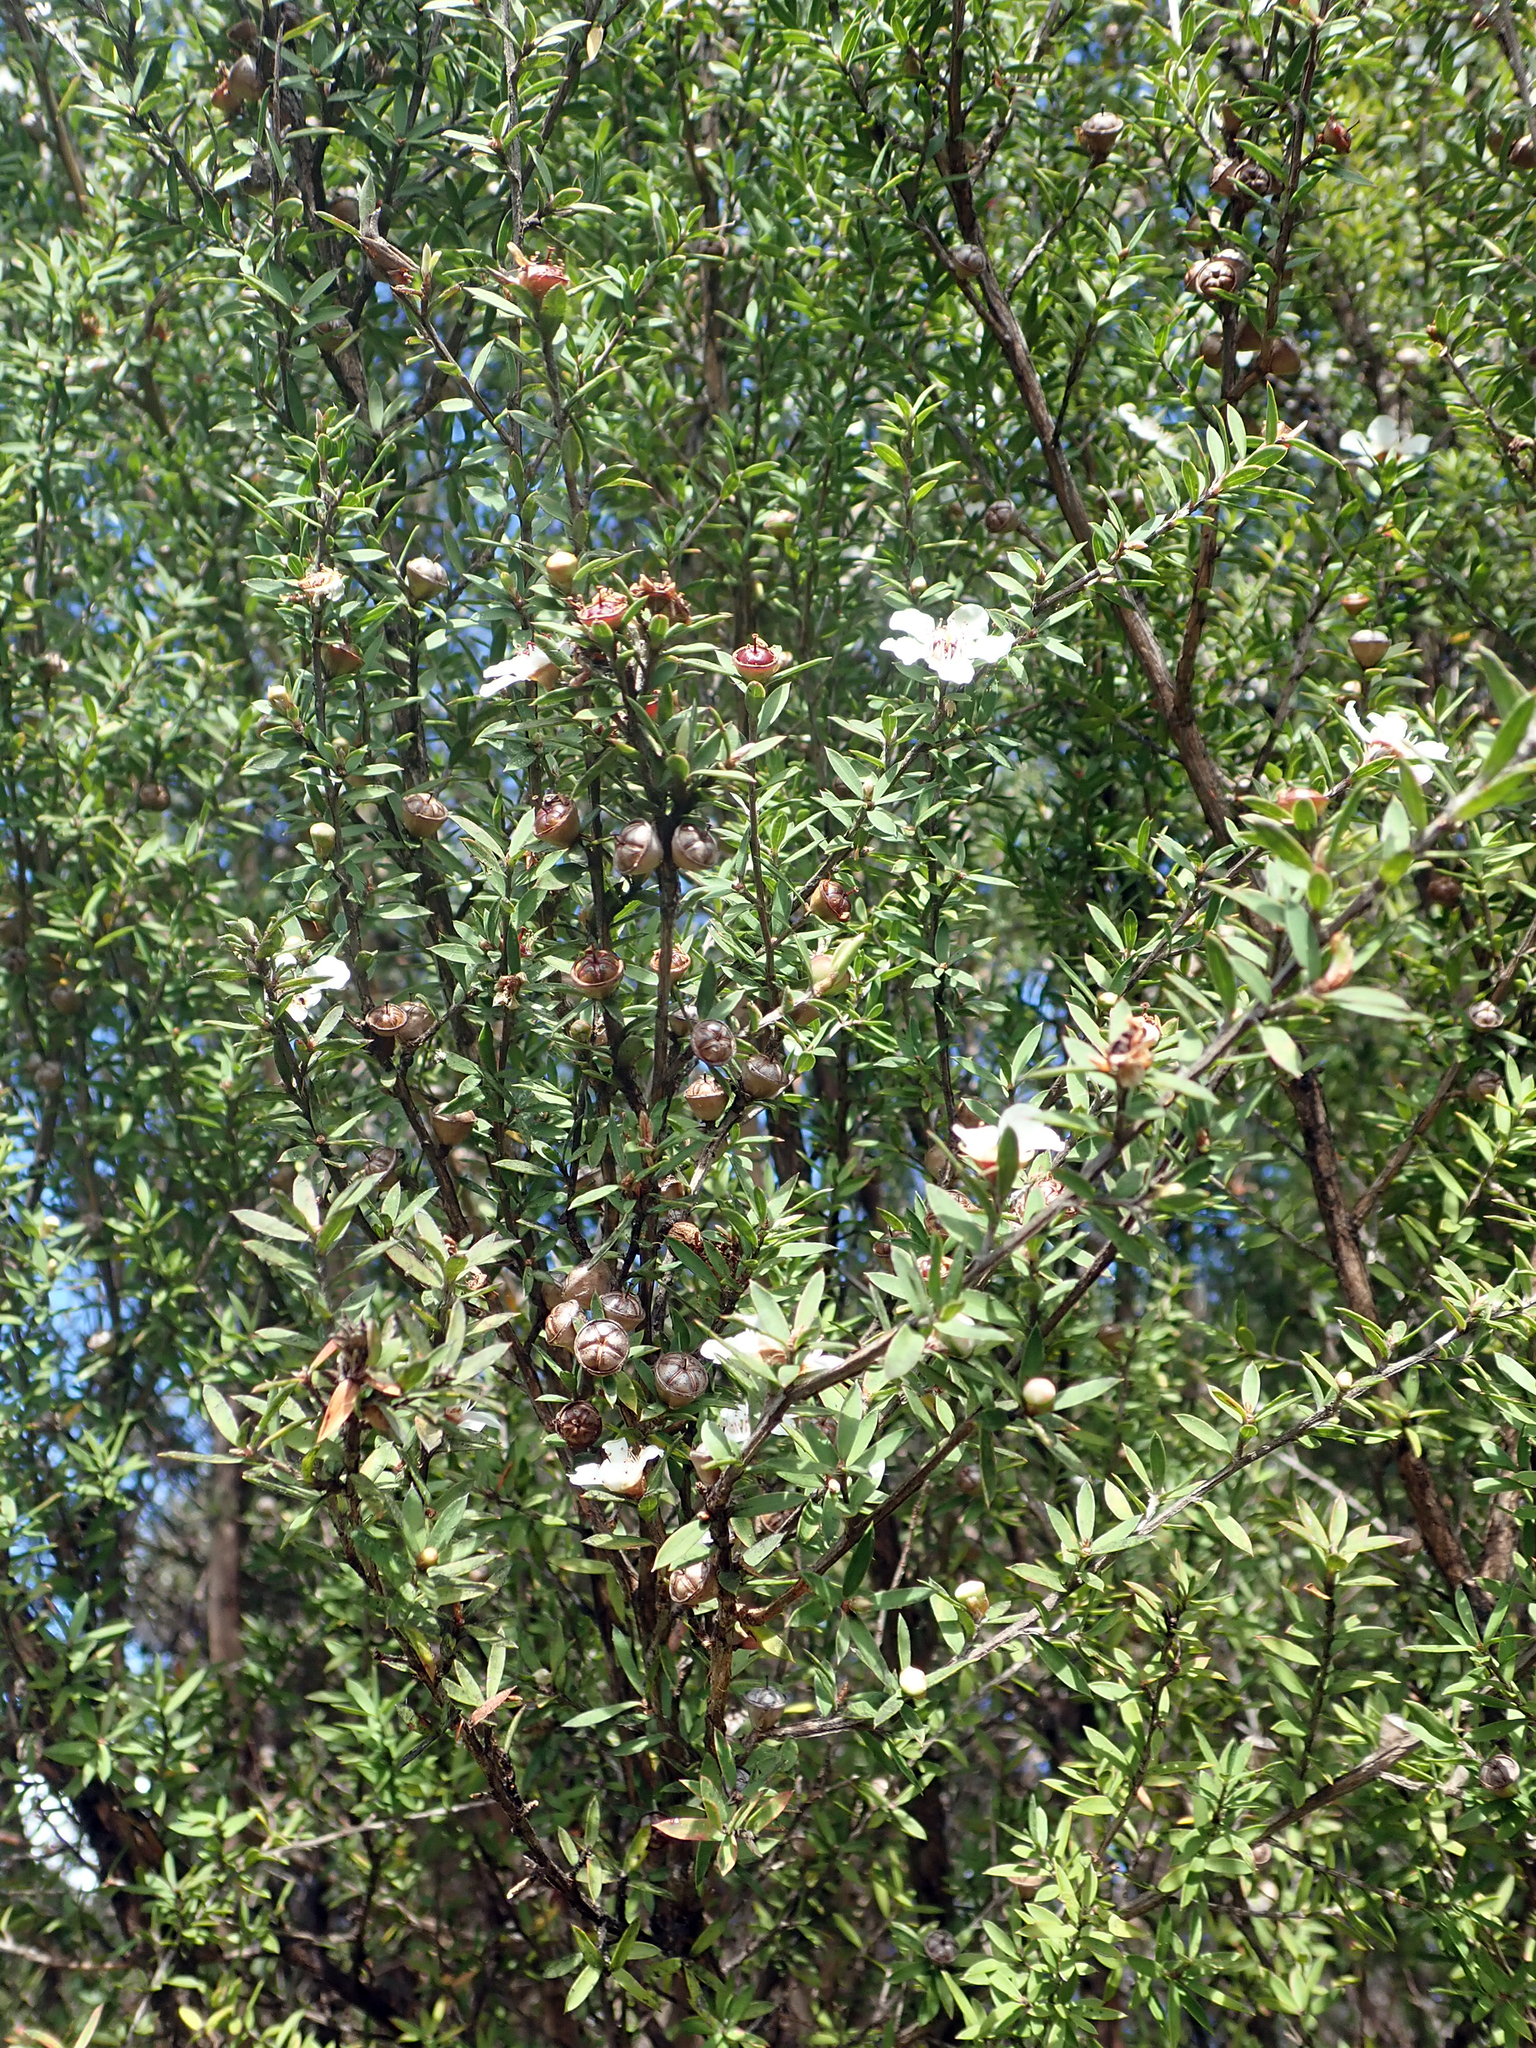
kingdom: Plantae
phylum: Tracheophyta
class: Magnoliopsida
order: Myrtales
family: Myrtaceae
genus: Leptospermum
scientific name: Leptospermum scoparium
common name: Broom tea-tree
